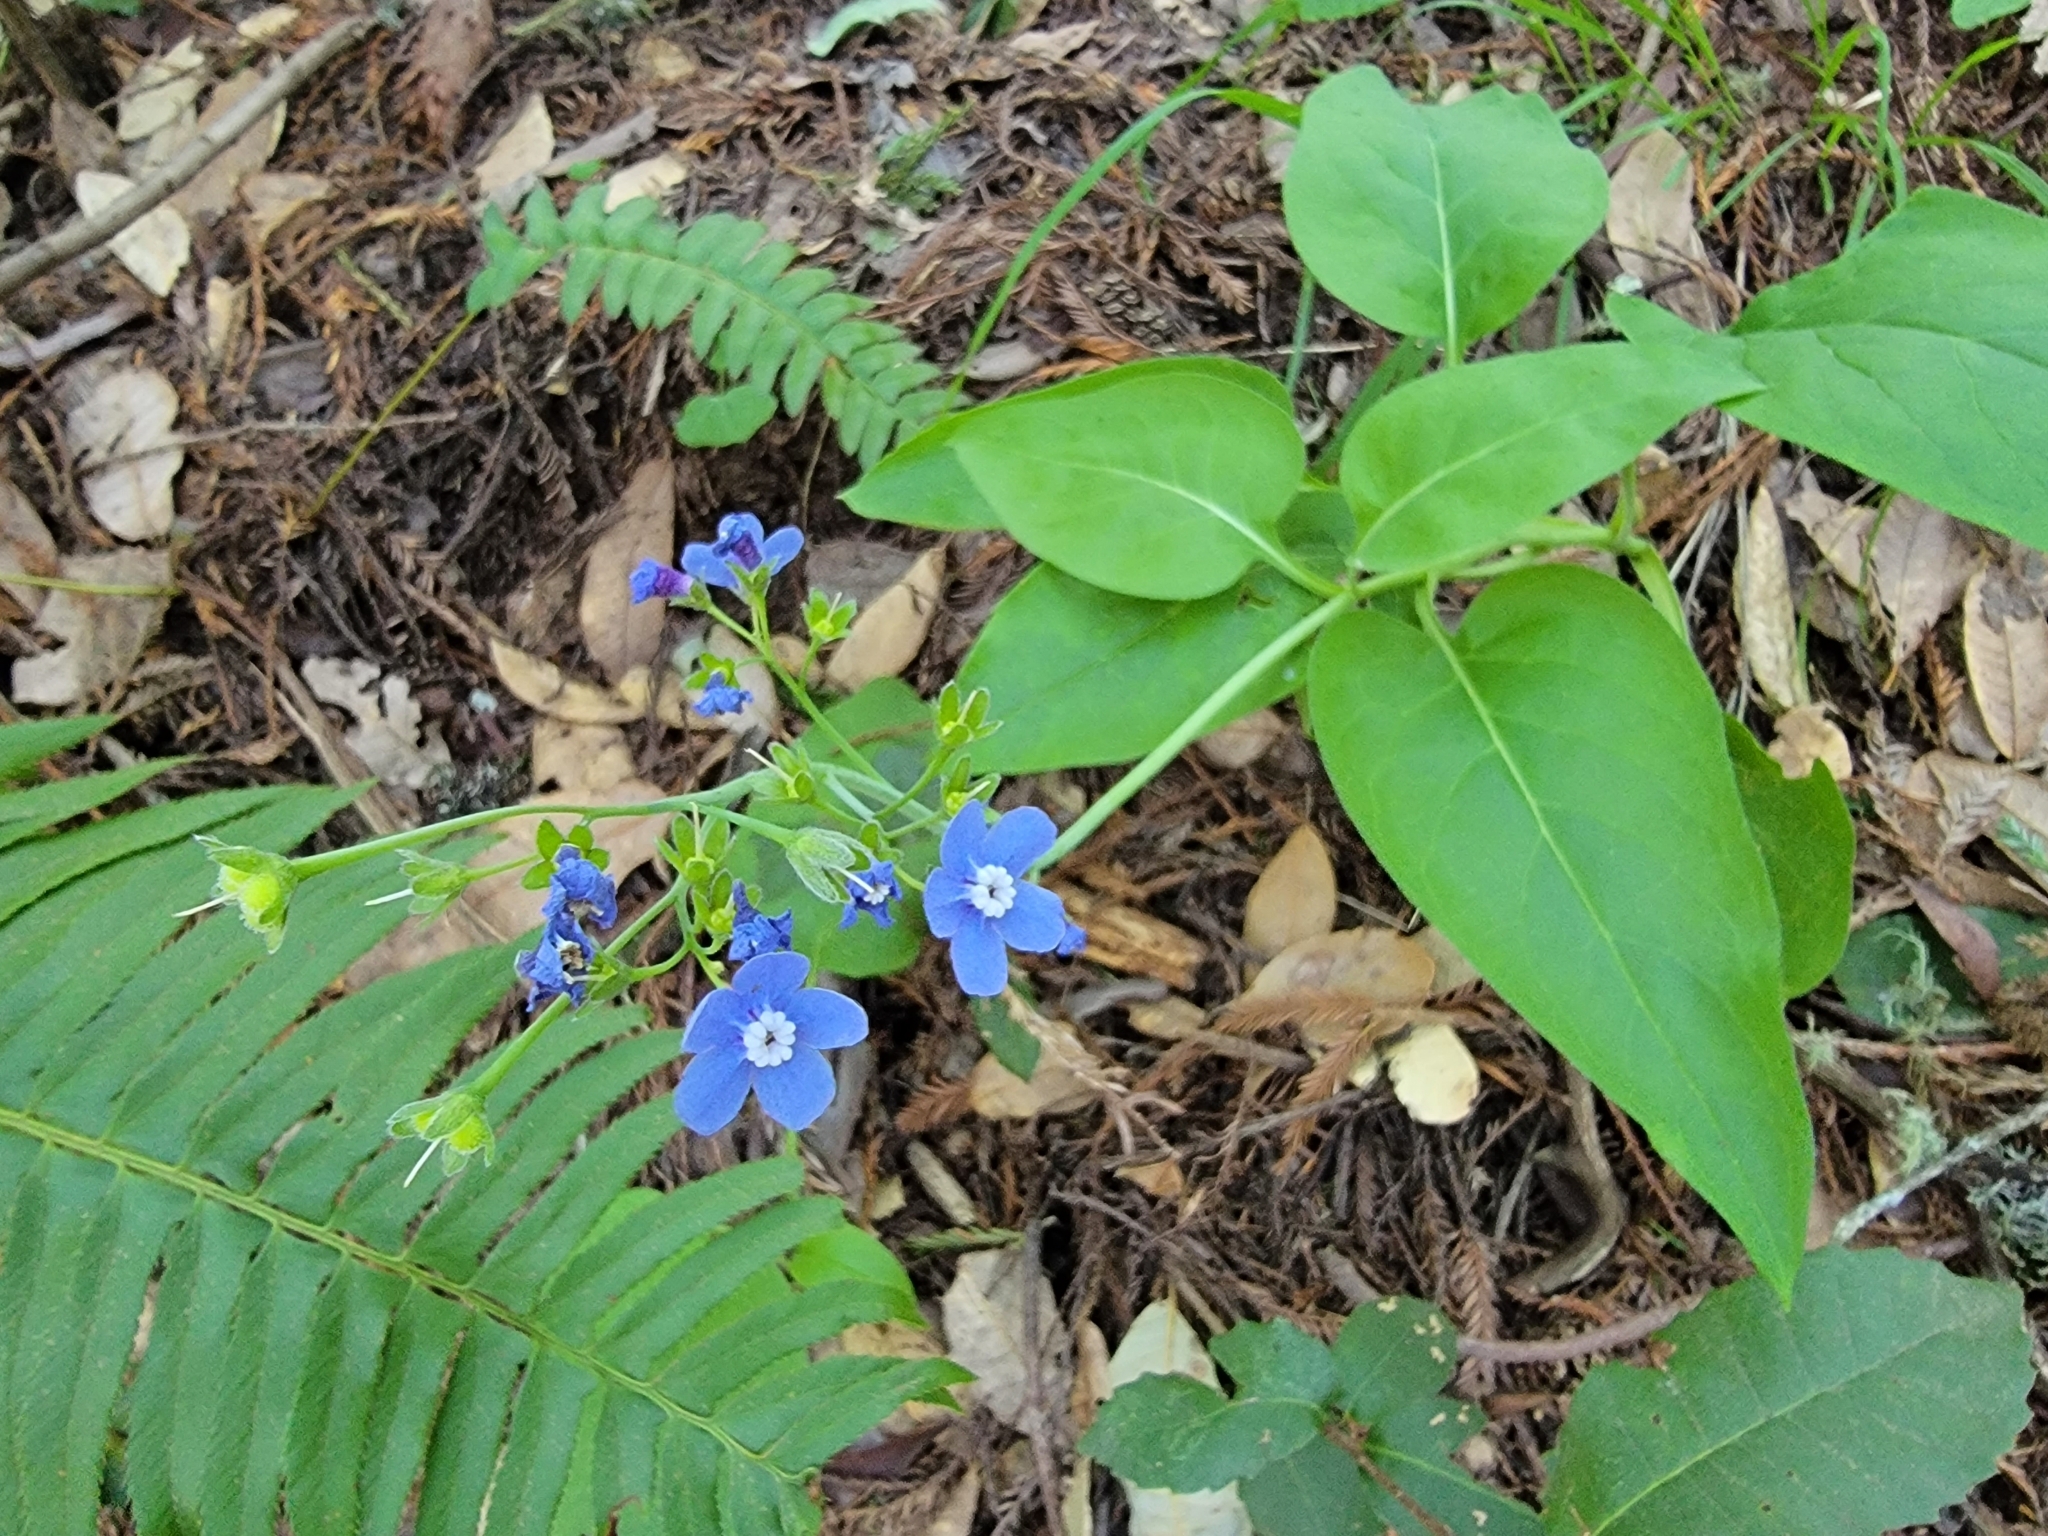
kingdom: Plantae
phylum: Tracheophyta
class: Magnoliopsida
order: Boraginales
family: Boraginaceae
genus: Adelinia
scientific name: Adelinia grande
